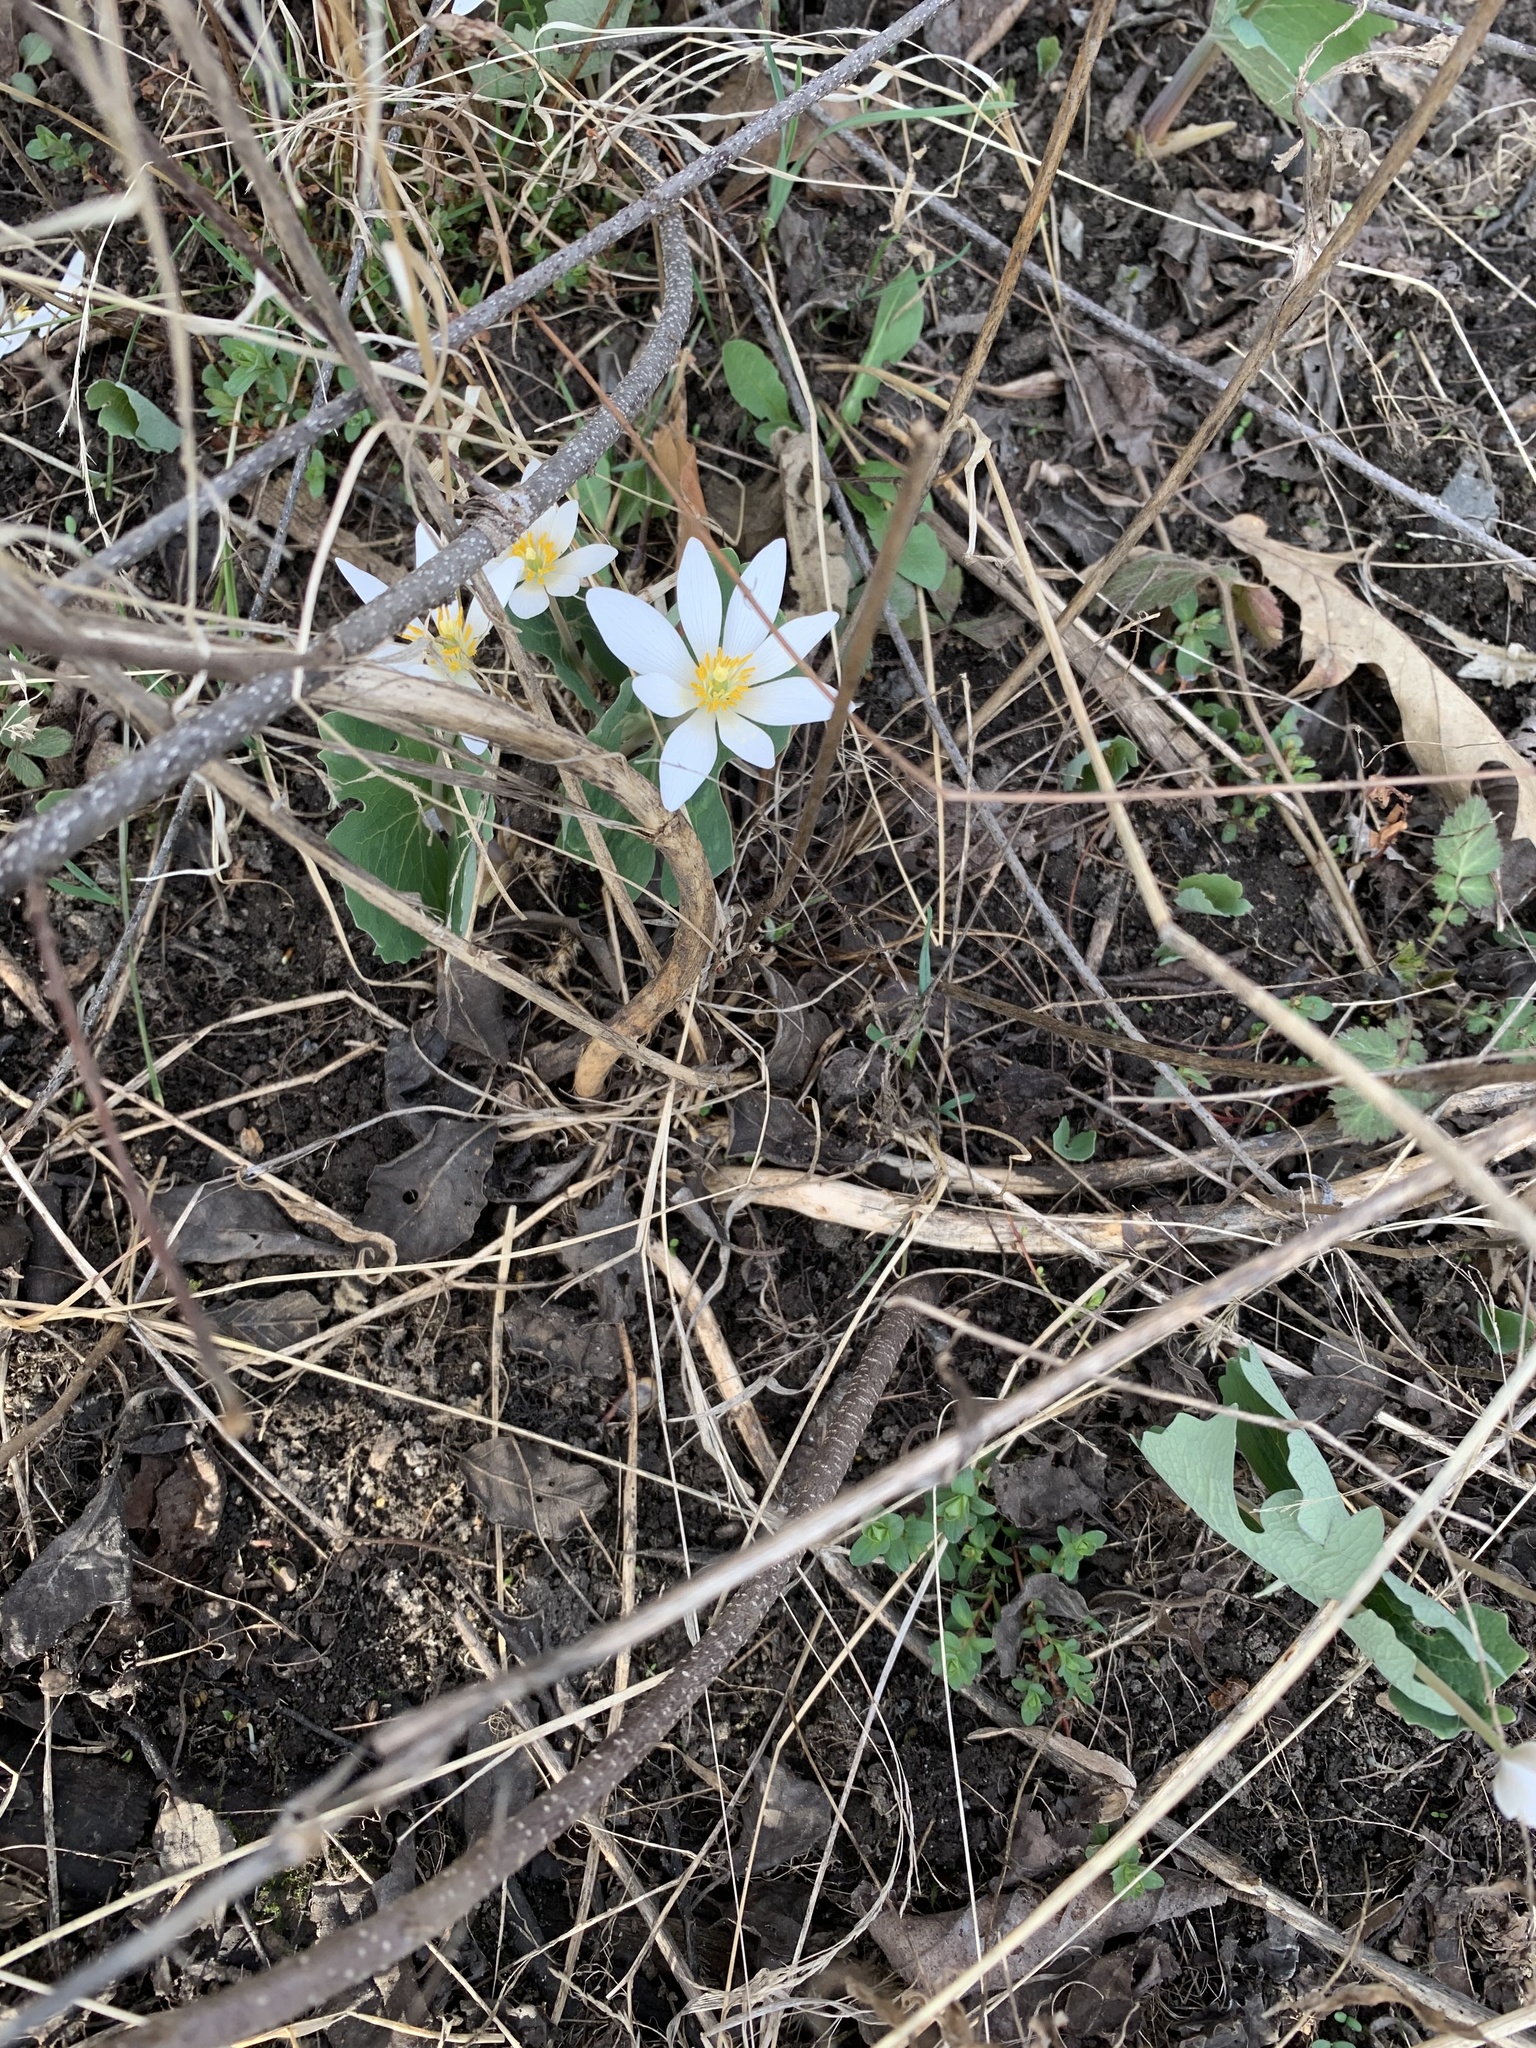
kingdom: Plantae
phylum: Tracheophyta
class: Magnoliopsida
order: Ranunculales
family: Papaveraceae
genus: Sanguinaria
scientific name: Sanguinaria canadensis
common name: Bloodroot
